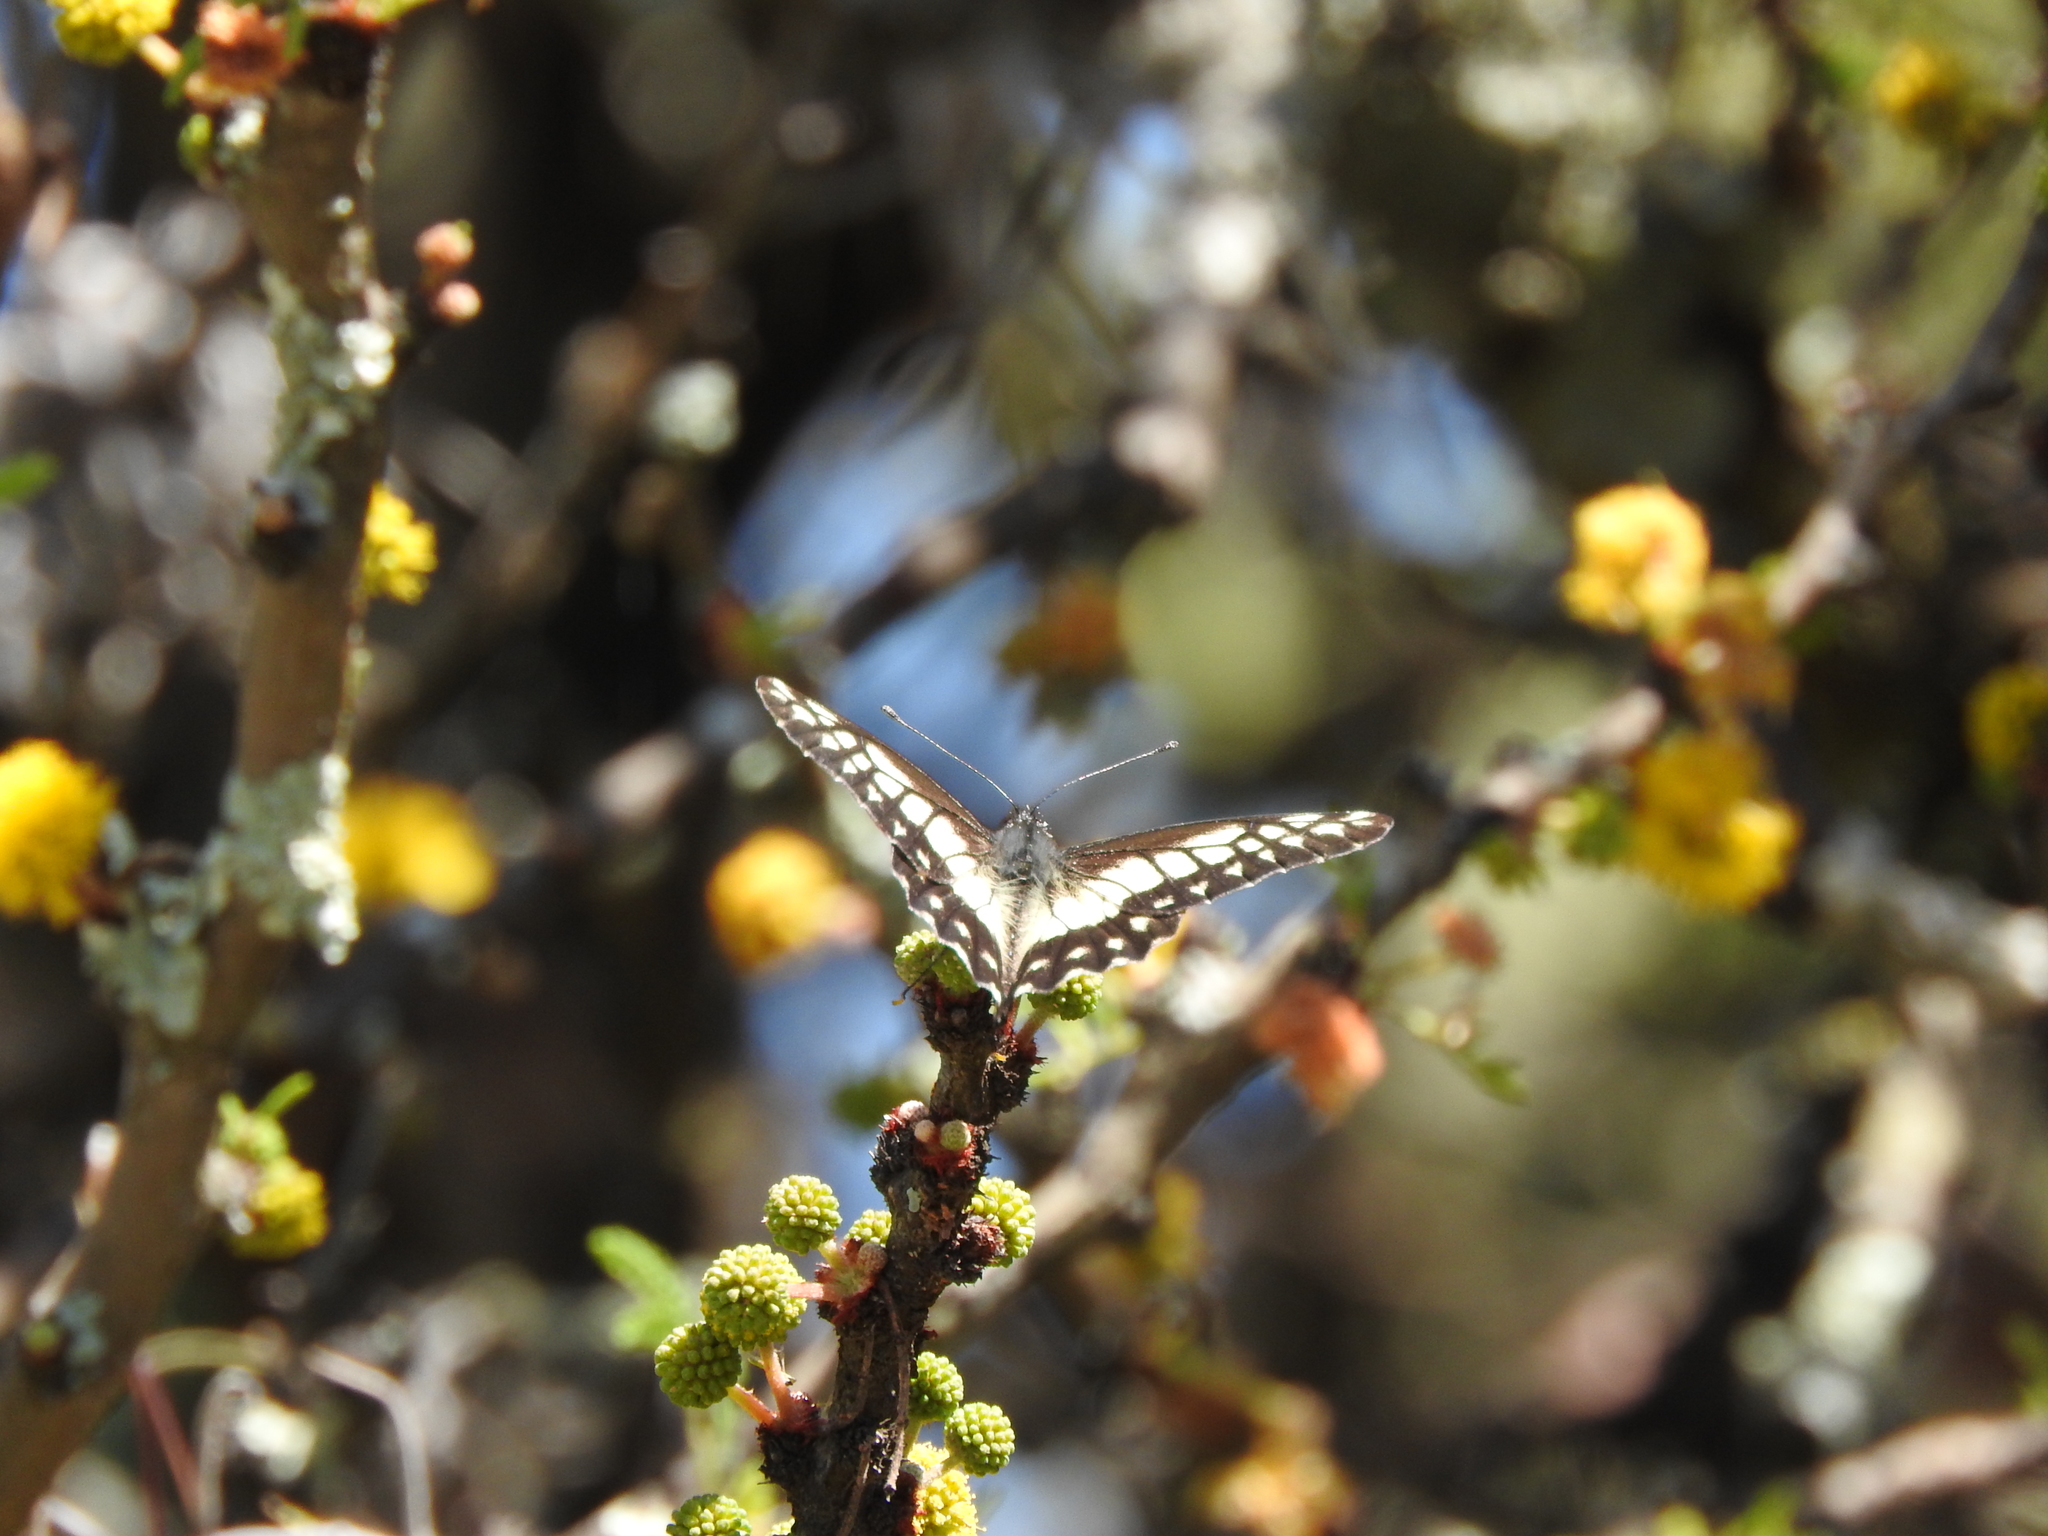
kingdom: Animalia
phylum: Arthropoda
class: Insecta
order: Lepidoptera
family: Pieridae
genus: Archonias
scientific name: Archonias nimbice
